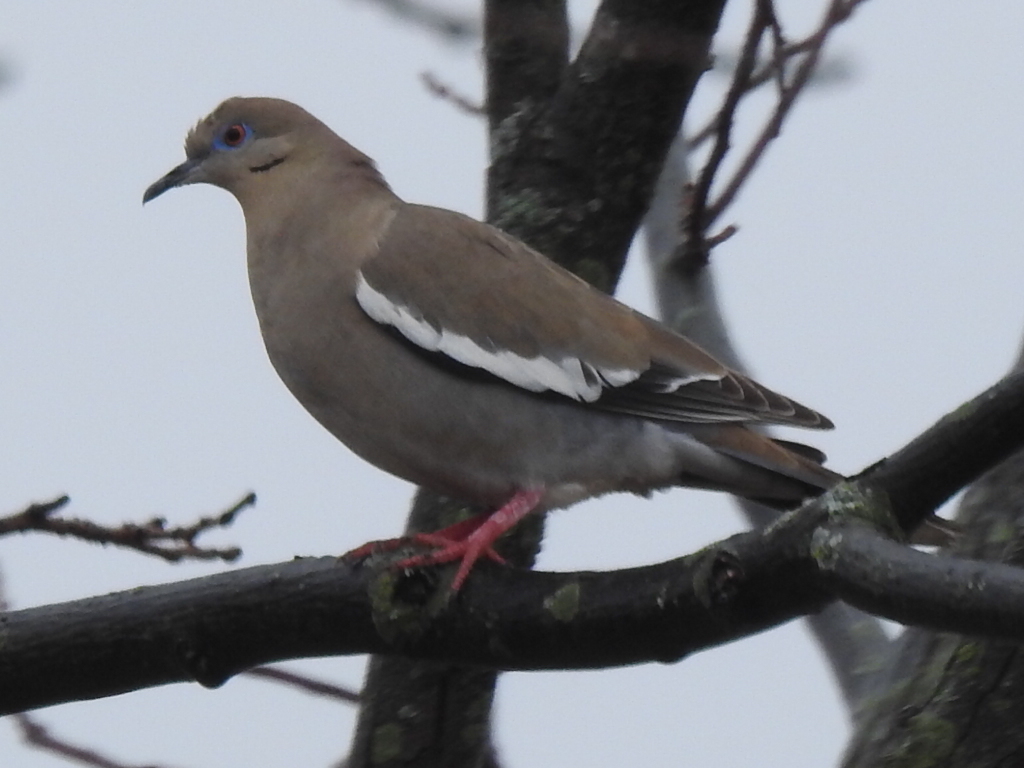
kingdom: Animalia
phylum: Chordata
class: Aves
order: Columbiformes
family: Columbidae
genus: Zenaida
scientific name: Zenaida asiatica
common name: White-winged dove
